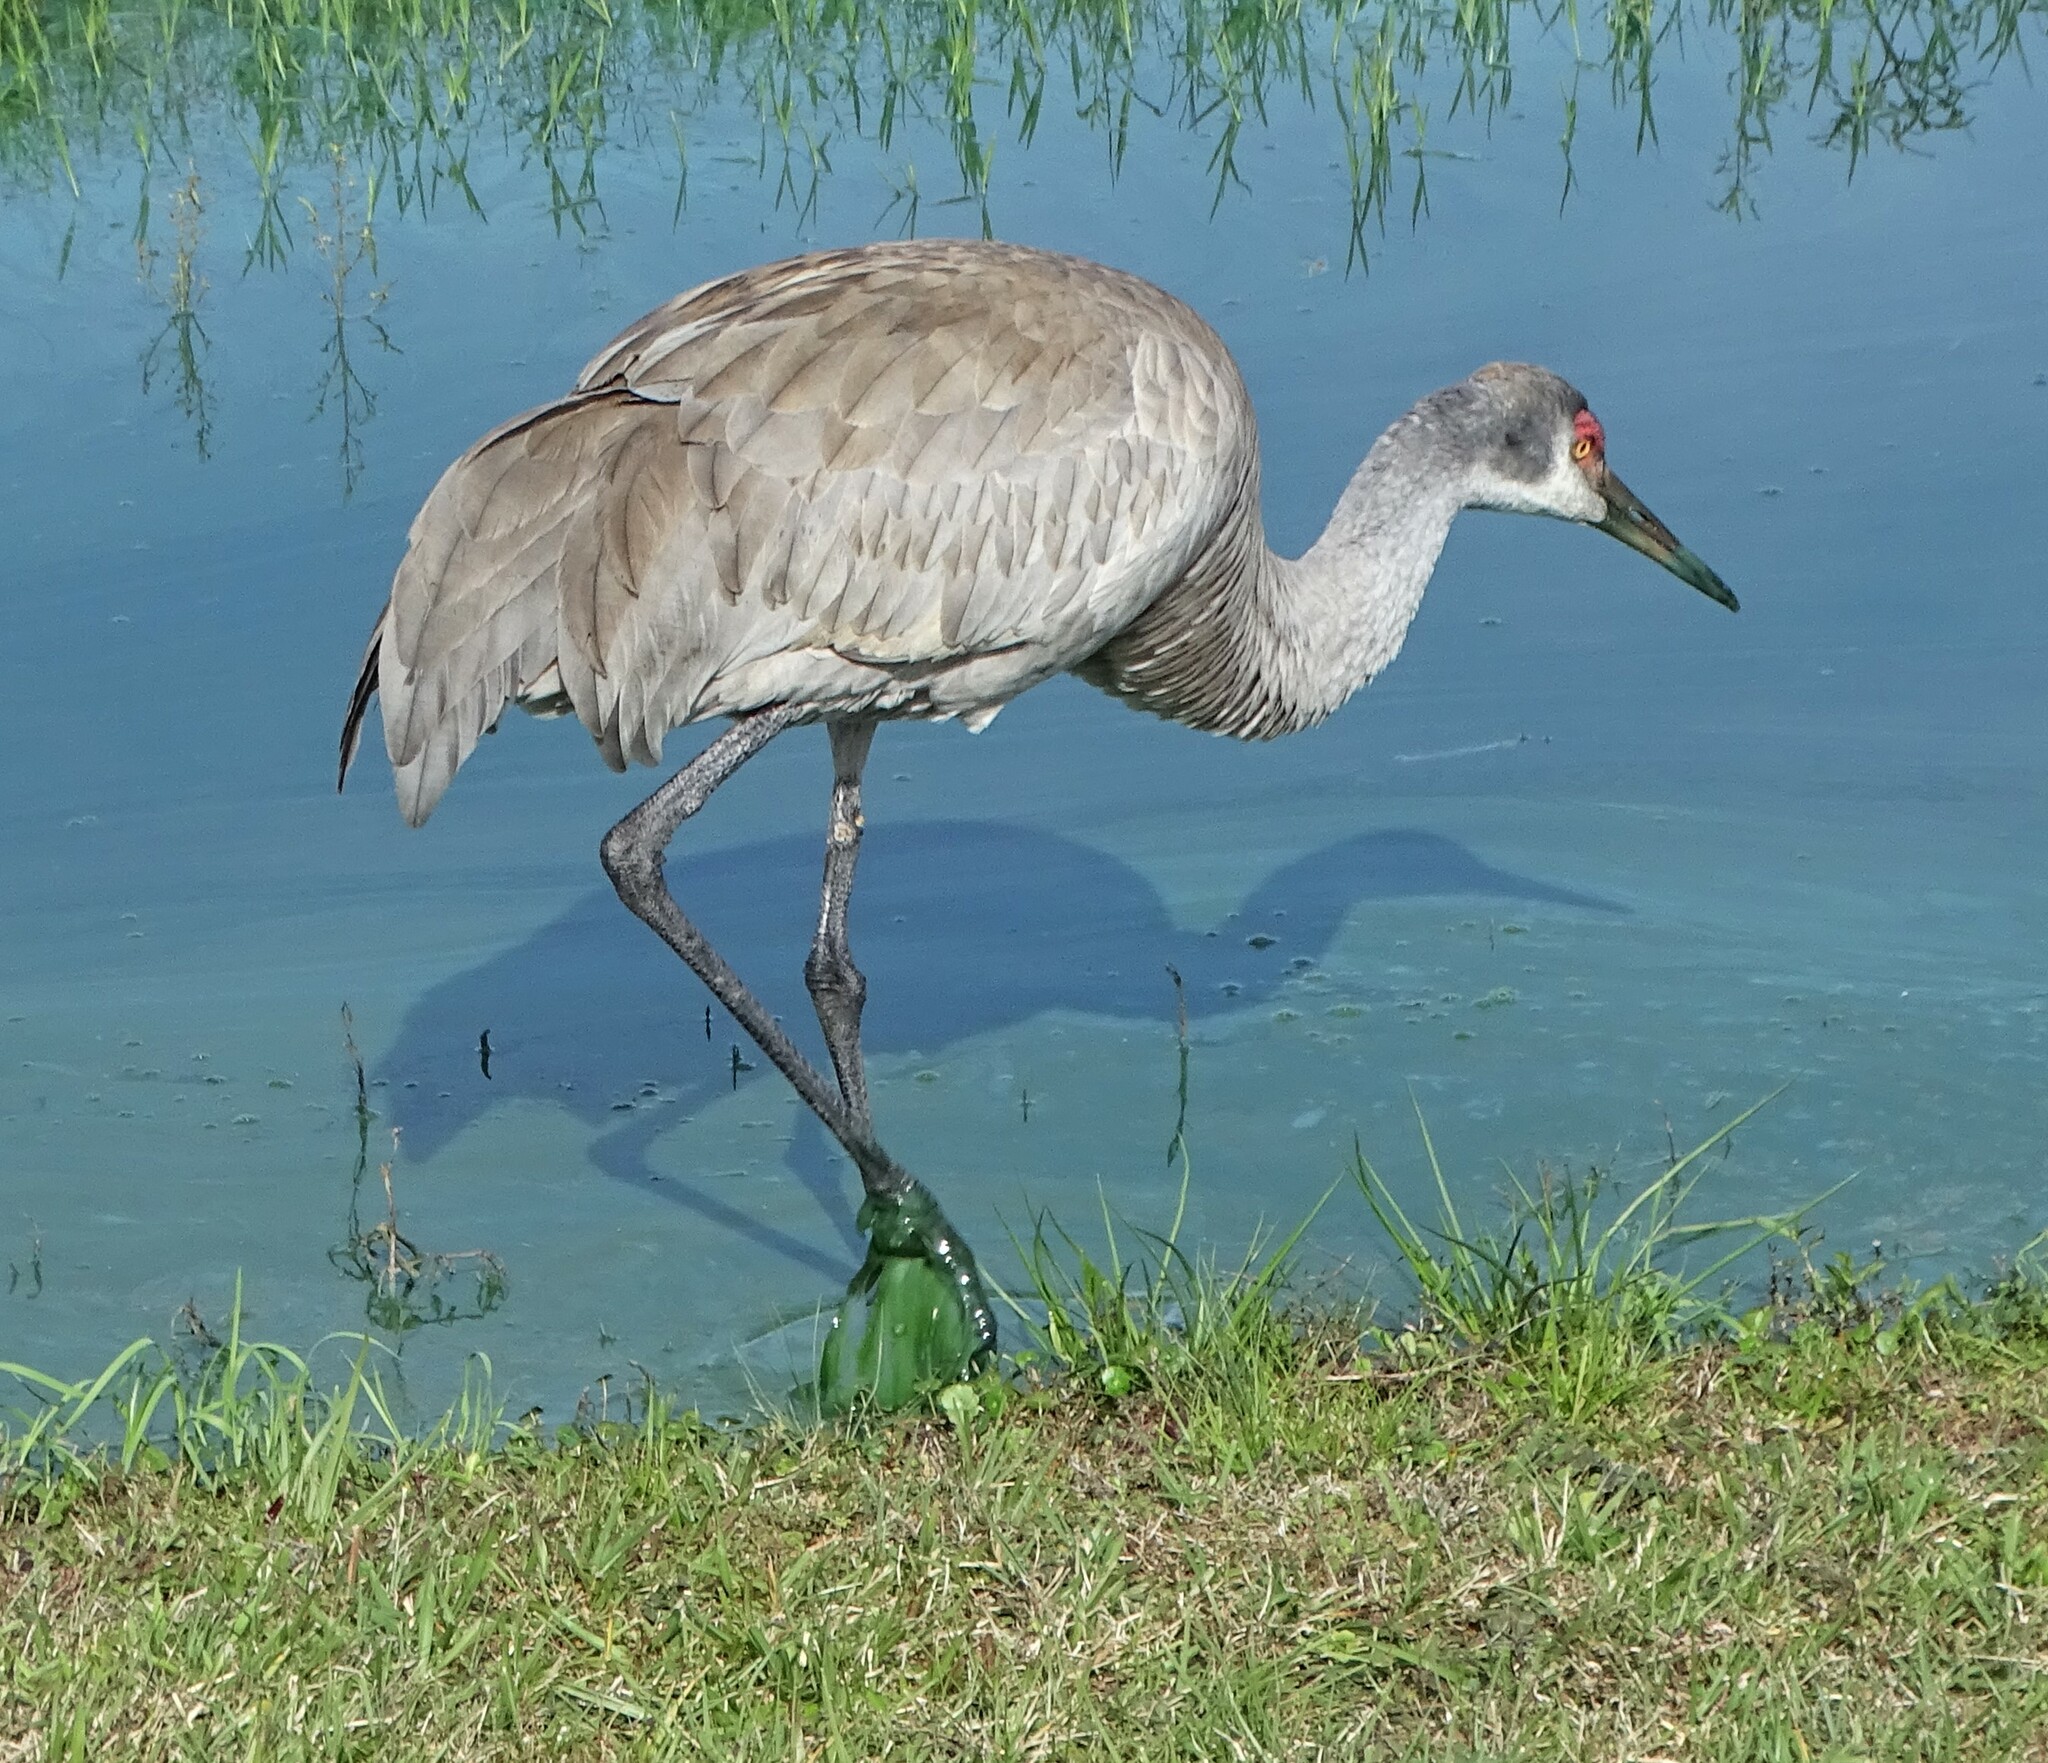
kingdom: Animalia
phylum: Chordata
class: Aves
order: Gruiformes
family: Gruidae
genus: Grus
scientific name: Grus canadensis
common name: Sandhill crane
